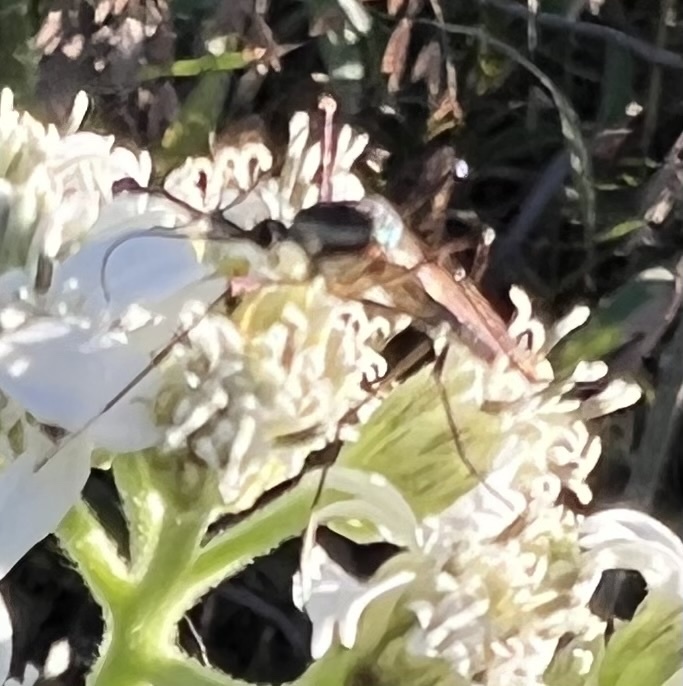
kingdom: Animalia
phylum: Arthropoda
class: Insecta
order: Diptera
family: Culicidae
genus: Toxorhynchites
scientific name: Toxorhynchites rutilus
